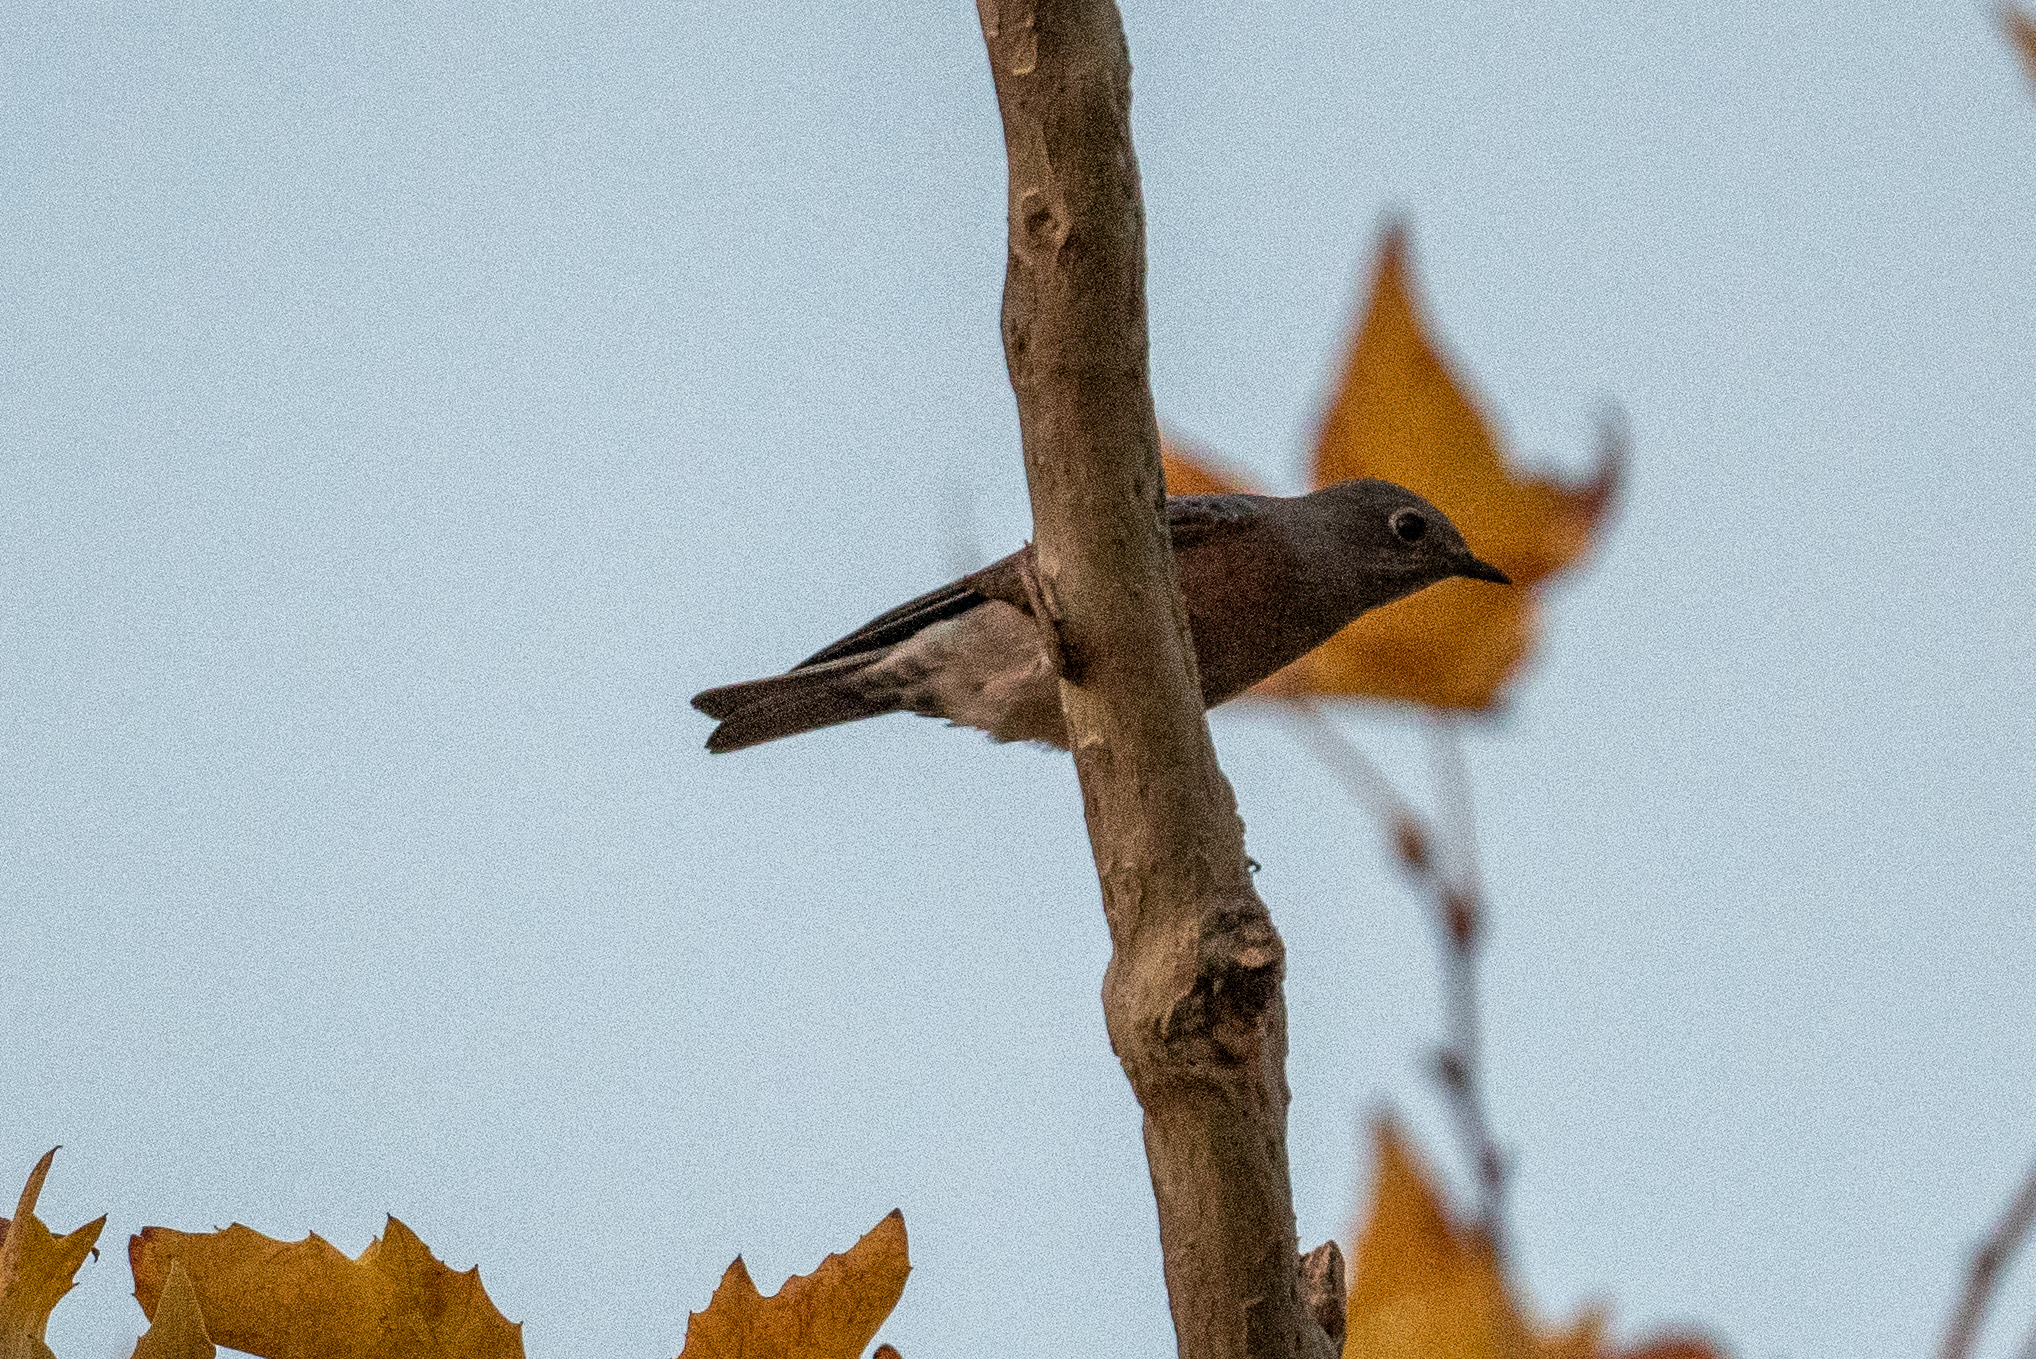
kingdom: Animalia
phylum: Chordata
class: Aves
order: Passeriformes
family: Turdidae
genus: Sialia
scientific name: Sialia mexicana
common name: Western bluebird
